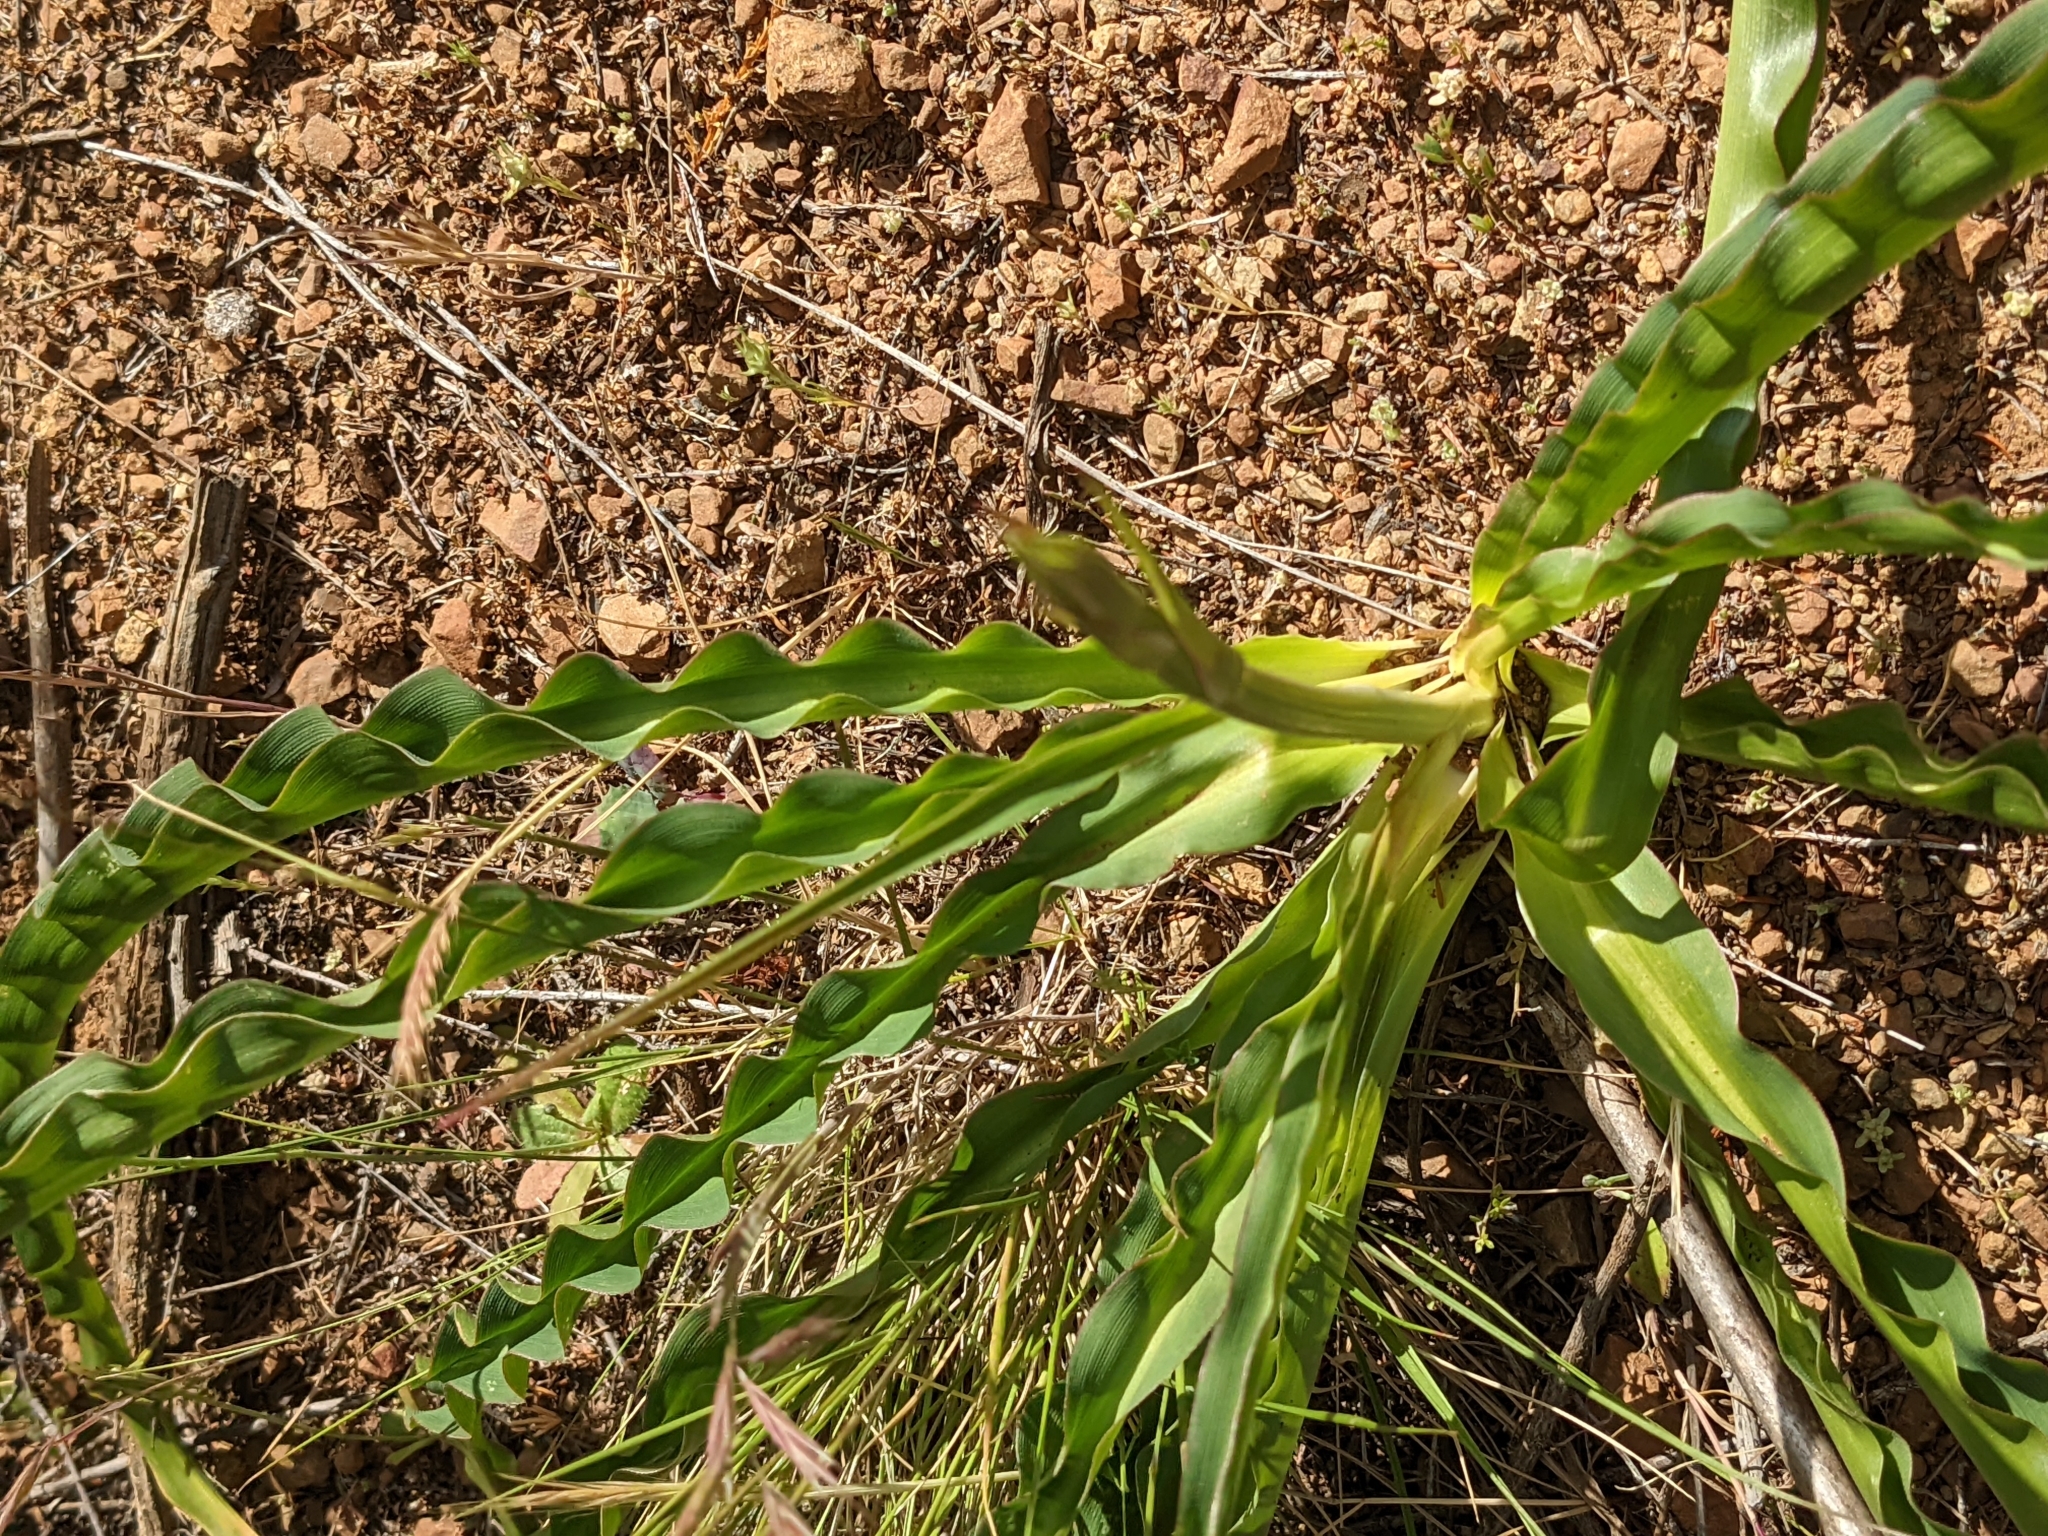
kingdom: Plantae
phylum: Tracheophyta
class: Liliopsida
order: Asparagales
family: Asparagaceae
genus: Chlorogalum
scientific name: Chlorogalum pomeridianum
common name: Amole
